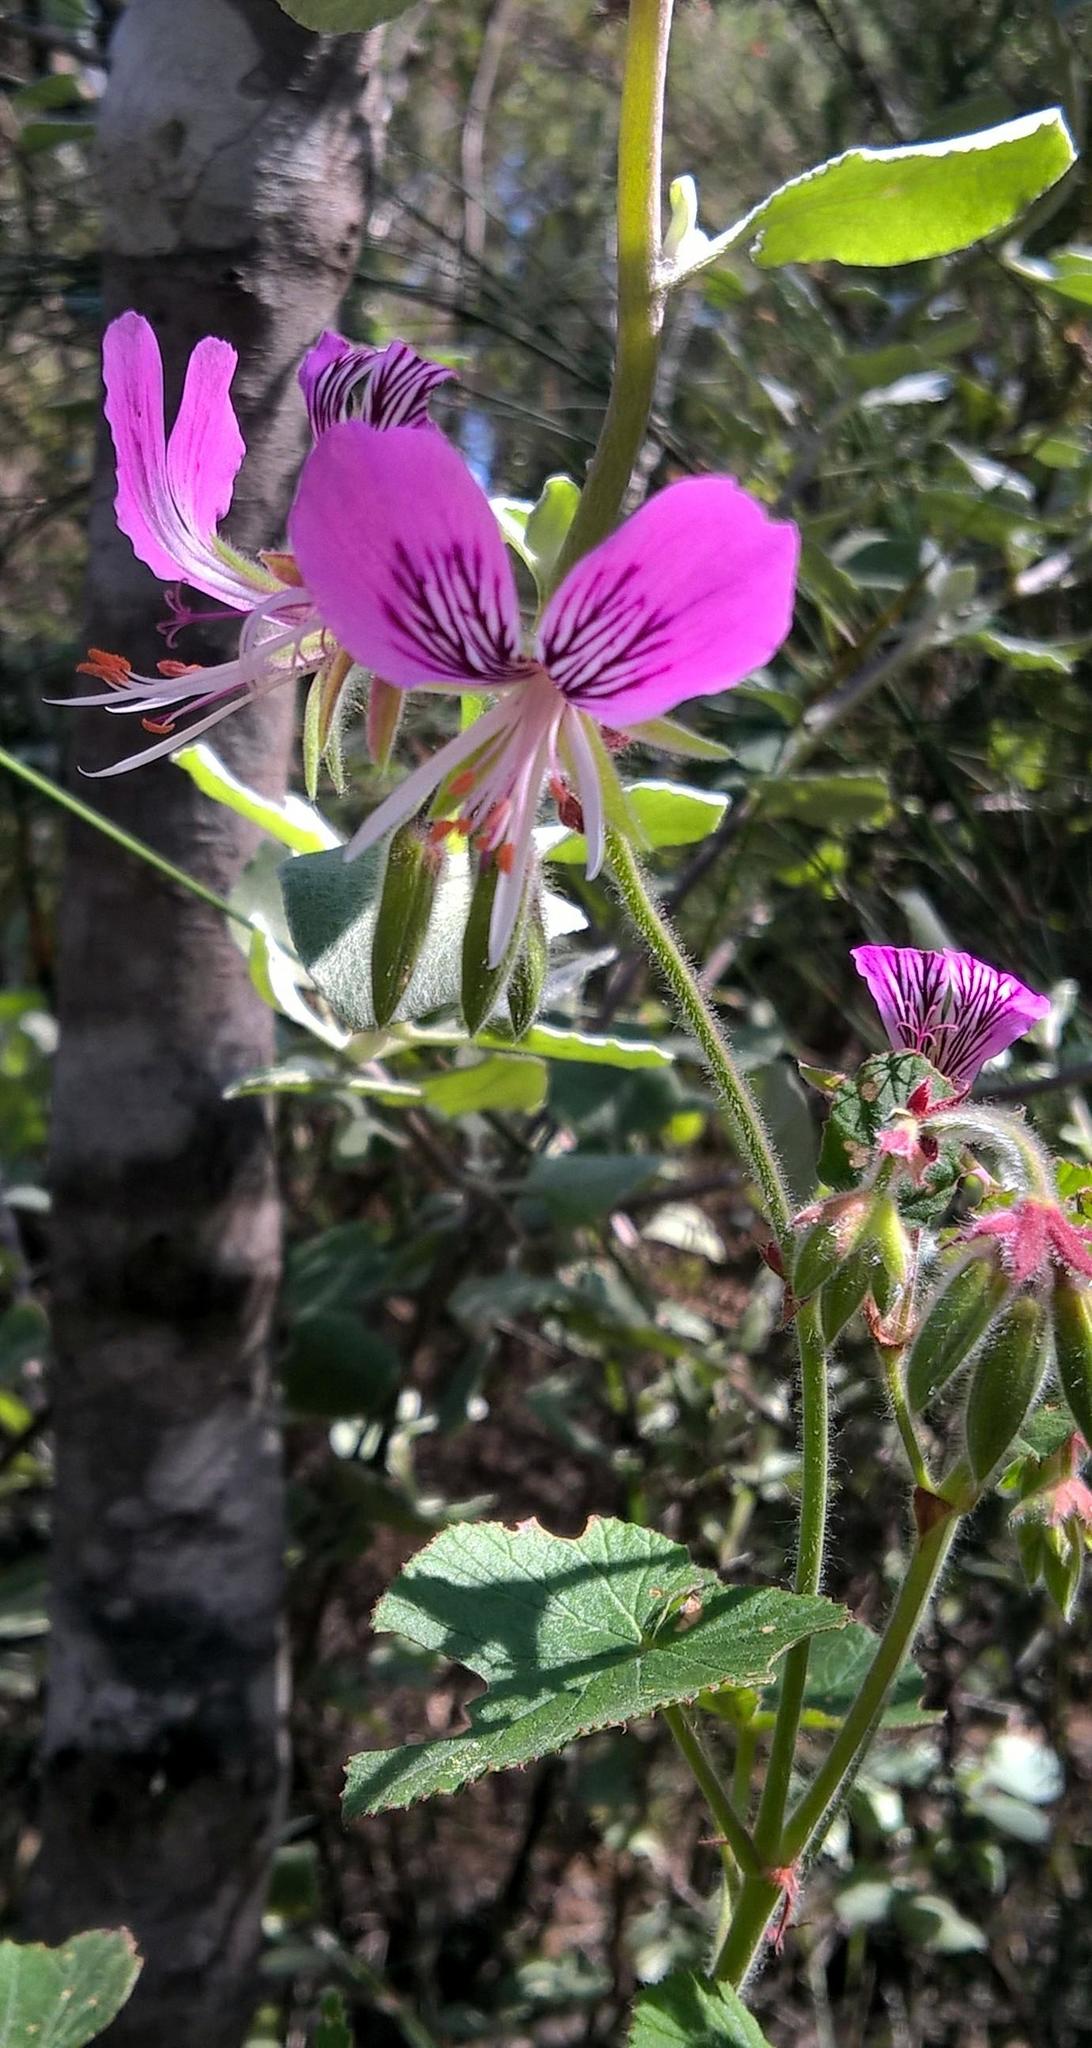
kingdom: Plantae
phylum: Tracheophyta
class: Magnoliopsida
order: Geraniales
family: Geraniaceae
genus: Pelargonium
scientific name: Pelargonium cordifolium
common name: Heart-leaf pelargonium
